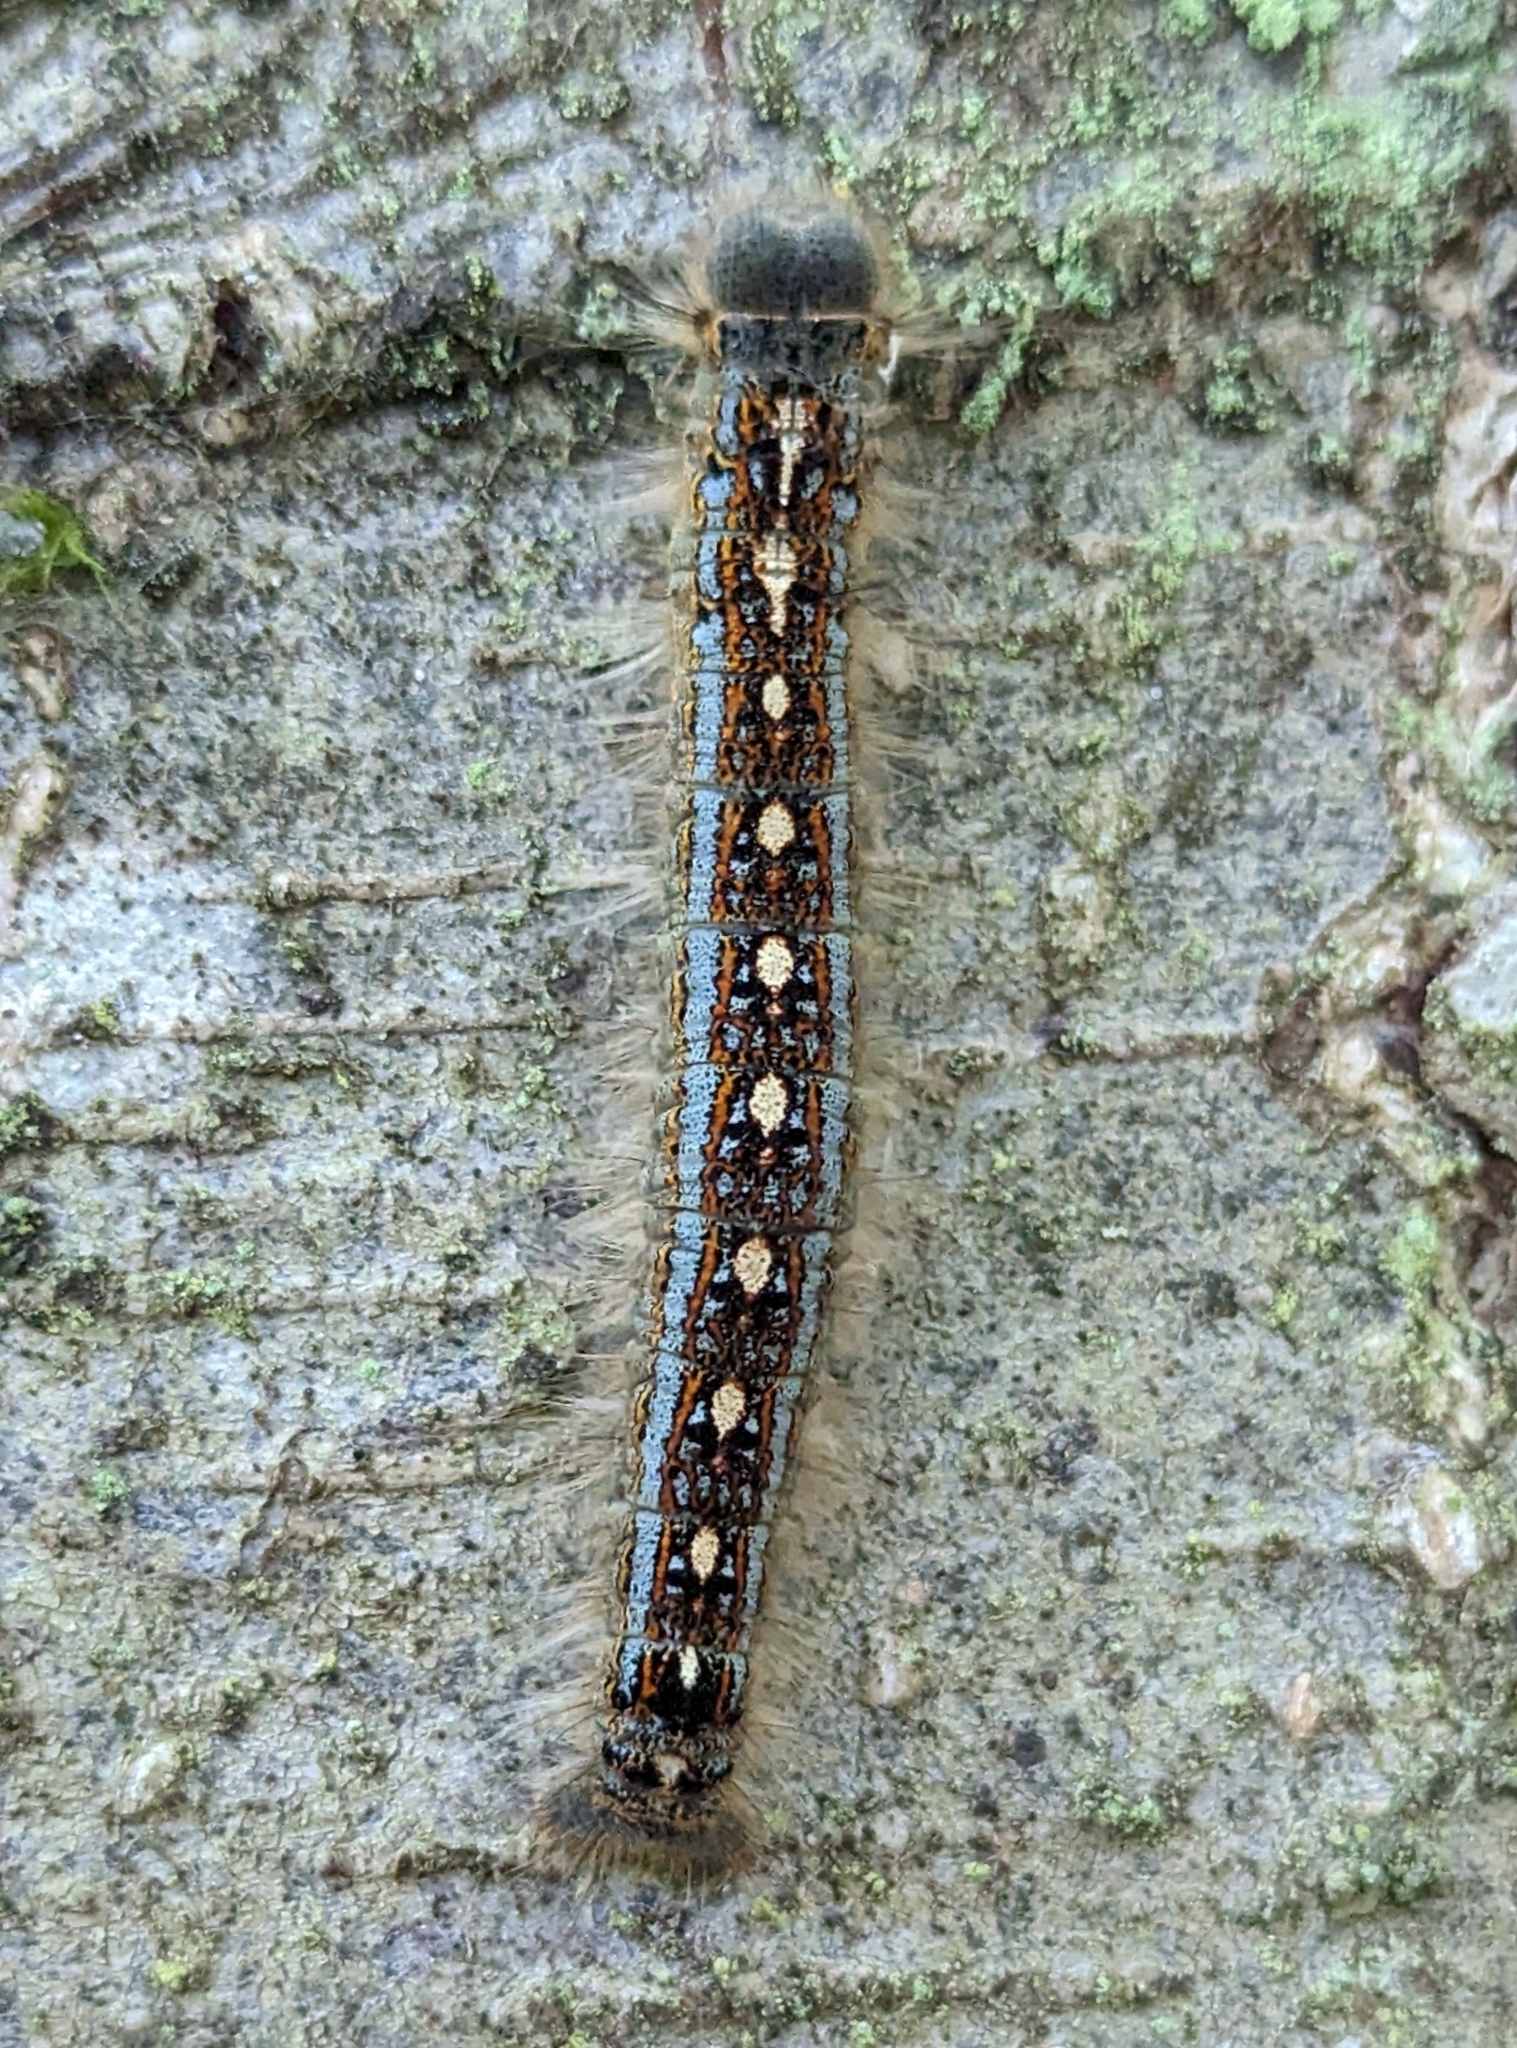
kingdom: Animalia
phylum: Arthropoda
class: Insecta
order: Lepidoptera
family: Lasiocampidae
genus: Malacosoma
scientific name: Malacosoma disstria
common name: Forest tent caterpillar
